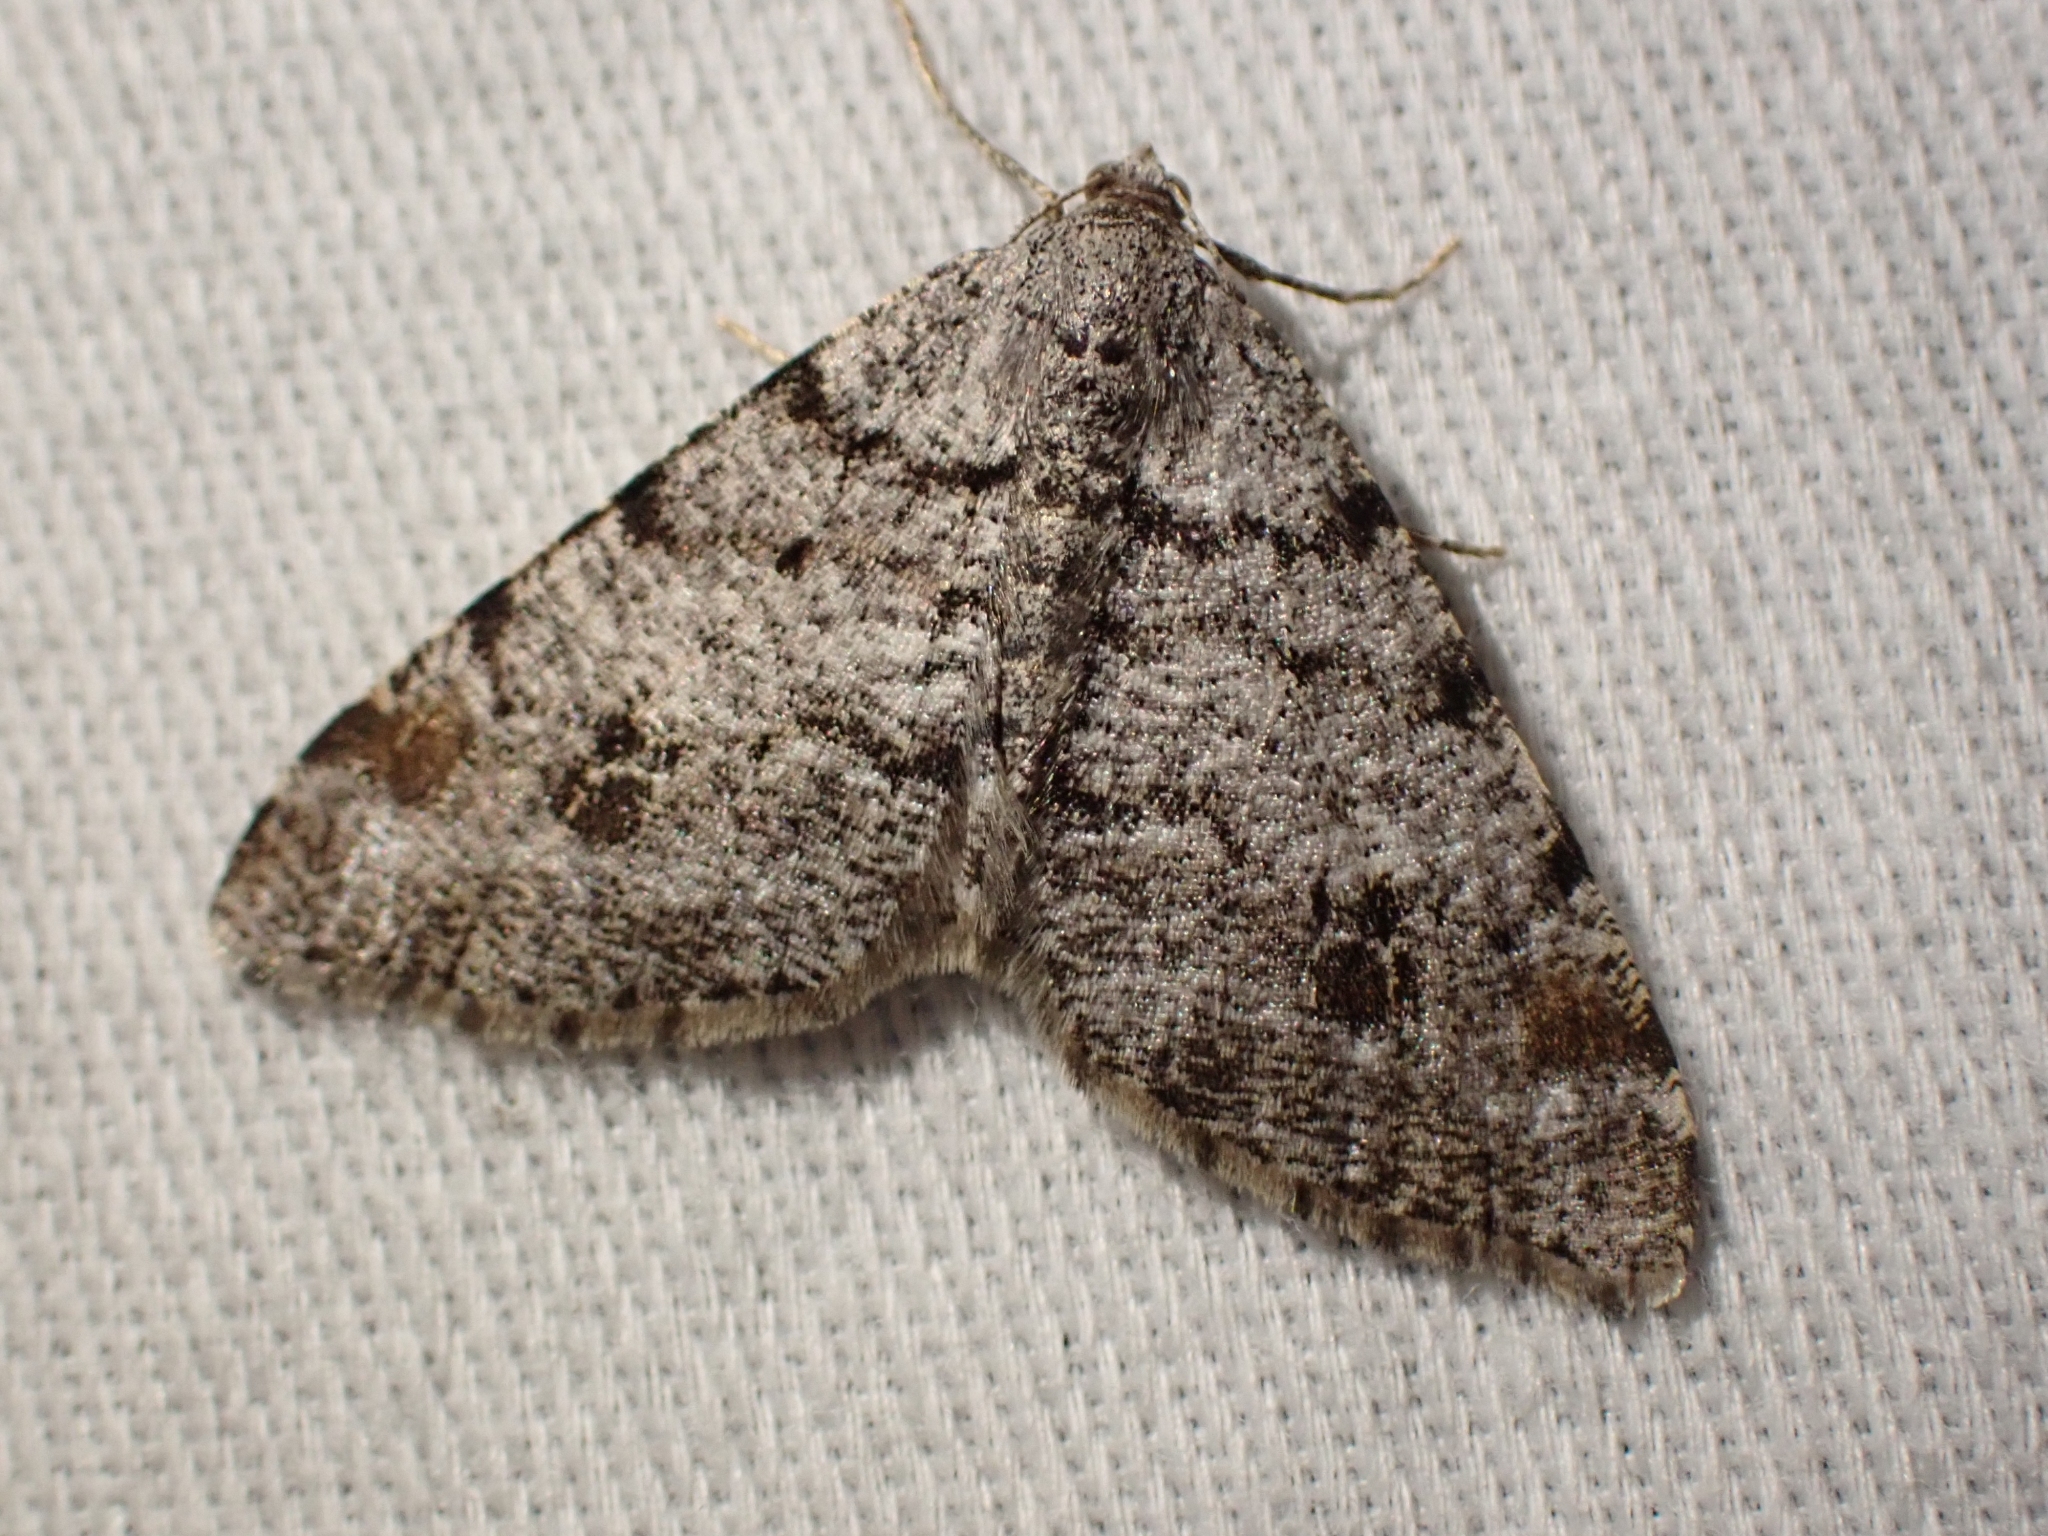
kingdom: Animalia
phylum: Arthropoda
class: Insecta
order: Lepidoptera
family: Geometridae
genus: Macaria
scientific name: Macaria signaria
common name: Dusky peacock
